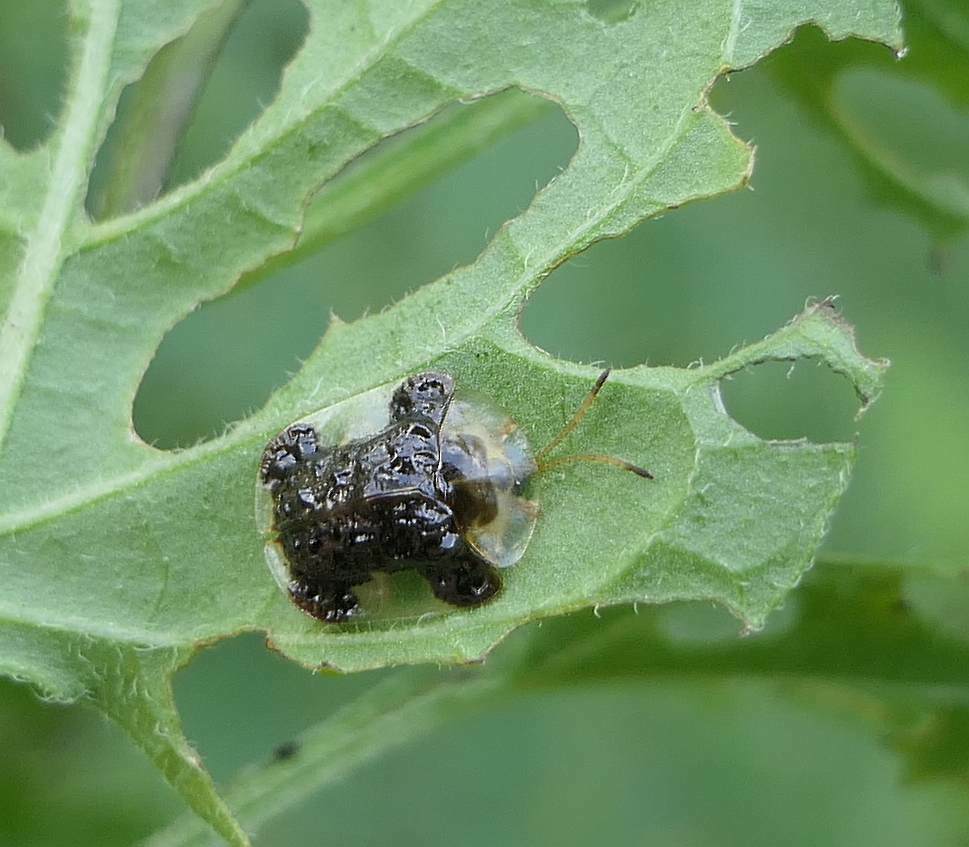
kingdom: Animalia
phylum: Arthropoda
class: Insecta
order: Coleoptera
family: Chrysomelidae
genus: Helocassis
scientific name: Helocassis clavata
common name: Clavate tortoise beetle
